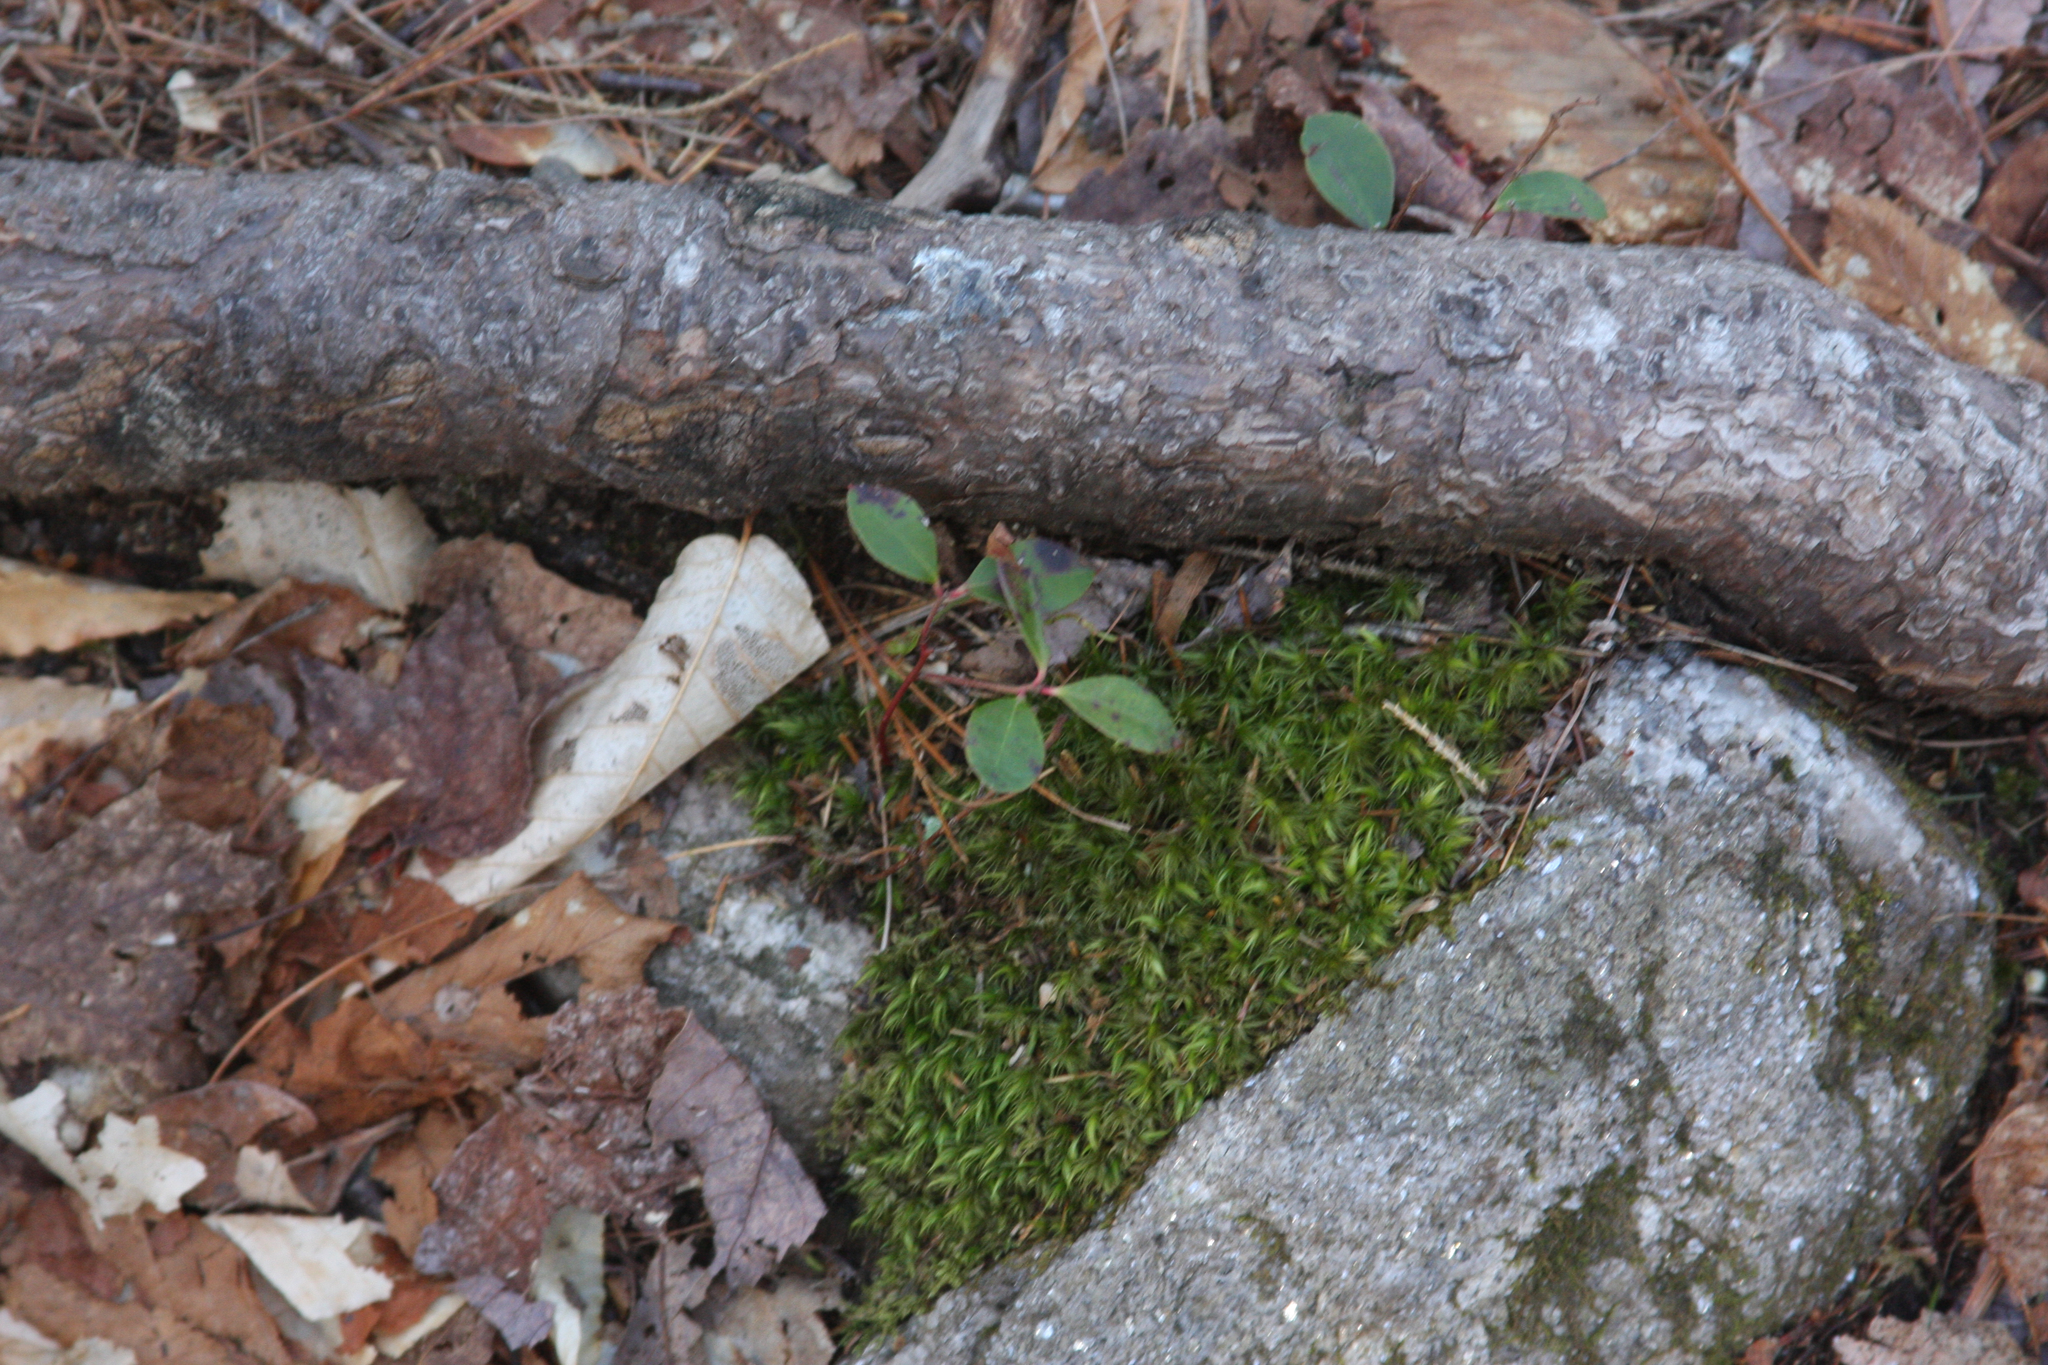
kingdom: Plantae
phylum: Tracheophyta
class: Magnoliopsida
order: Ericales
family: Ericaceae
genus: Gaultheria
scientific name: Gaultheria procumbens
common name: Checkerberry
